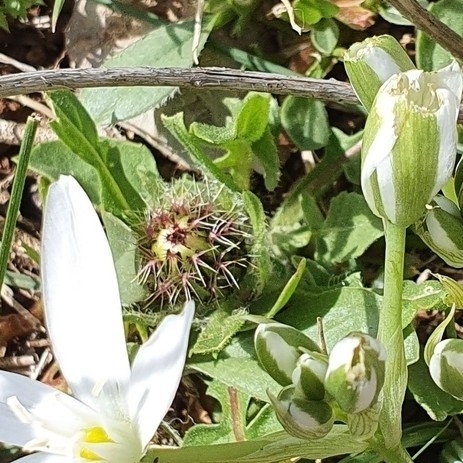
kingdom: Plantae
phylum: Tracheophyta
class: Magnoliopsida
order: Asterales
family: Asteraceae
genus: Centaurea
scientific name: Centaurea pullata
